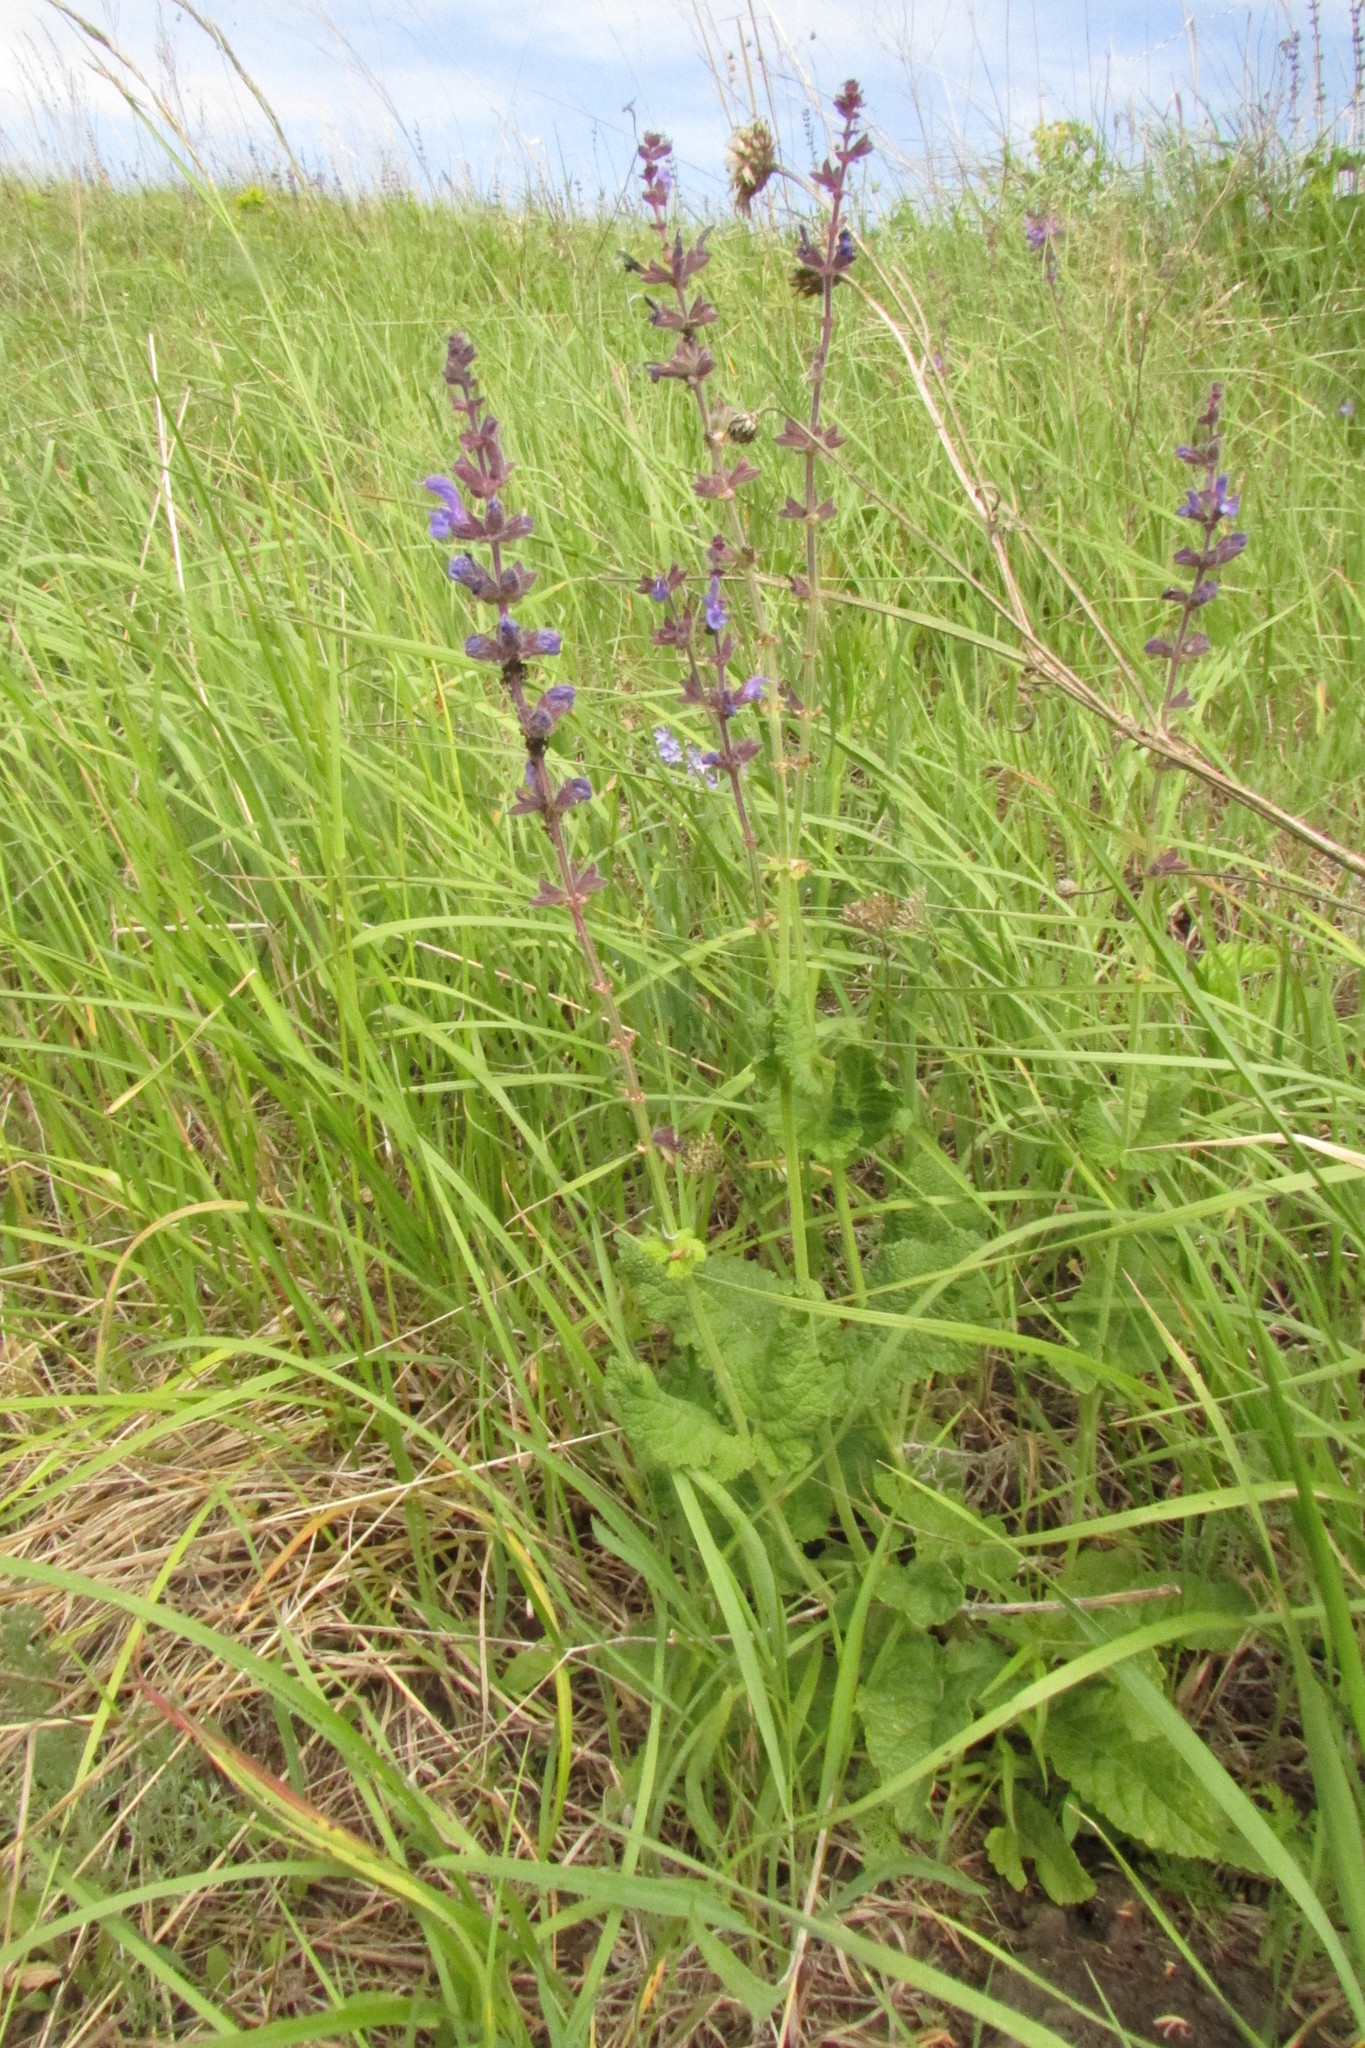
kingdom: Plantae
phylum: Tracheophyta
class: Magnoliopsida
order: Lamiales
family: Lamiaceae
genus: Salvia
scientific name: Salvia dumetorum
